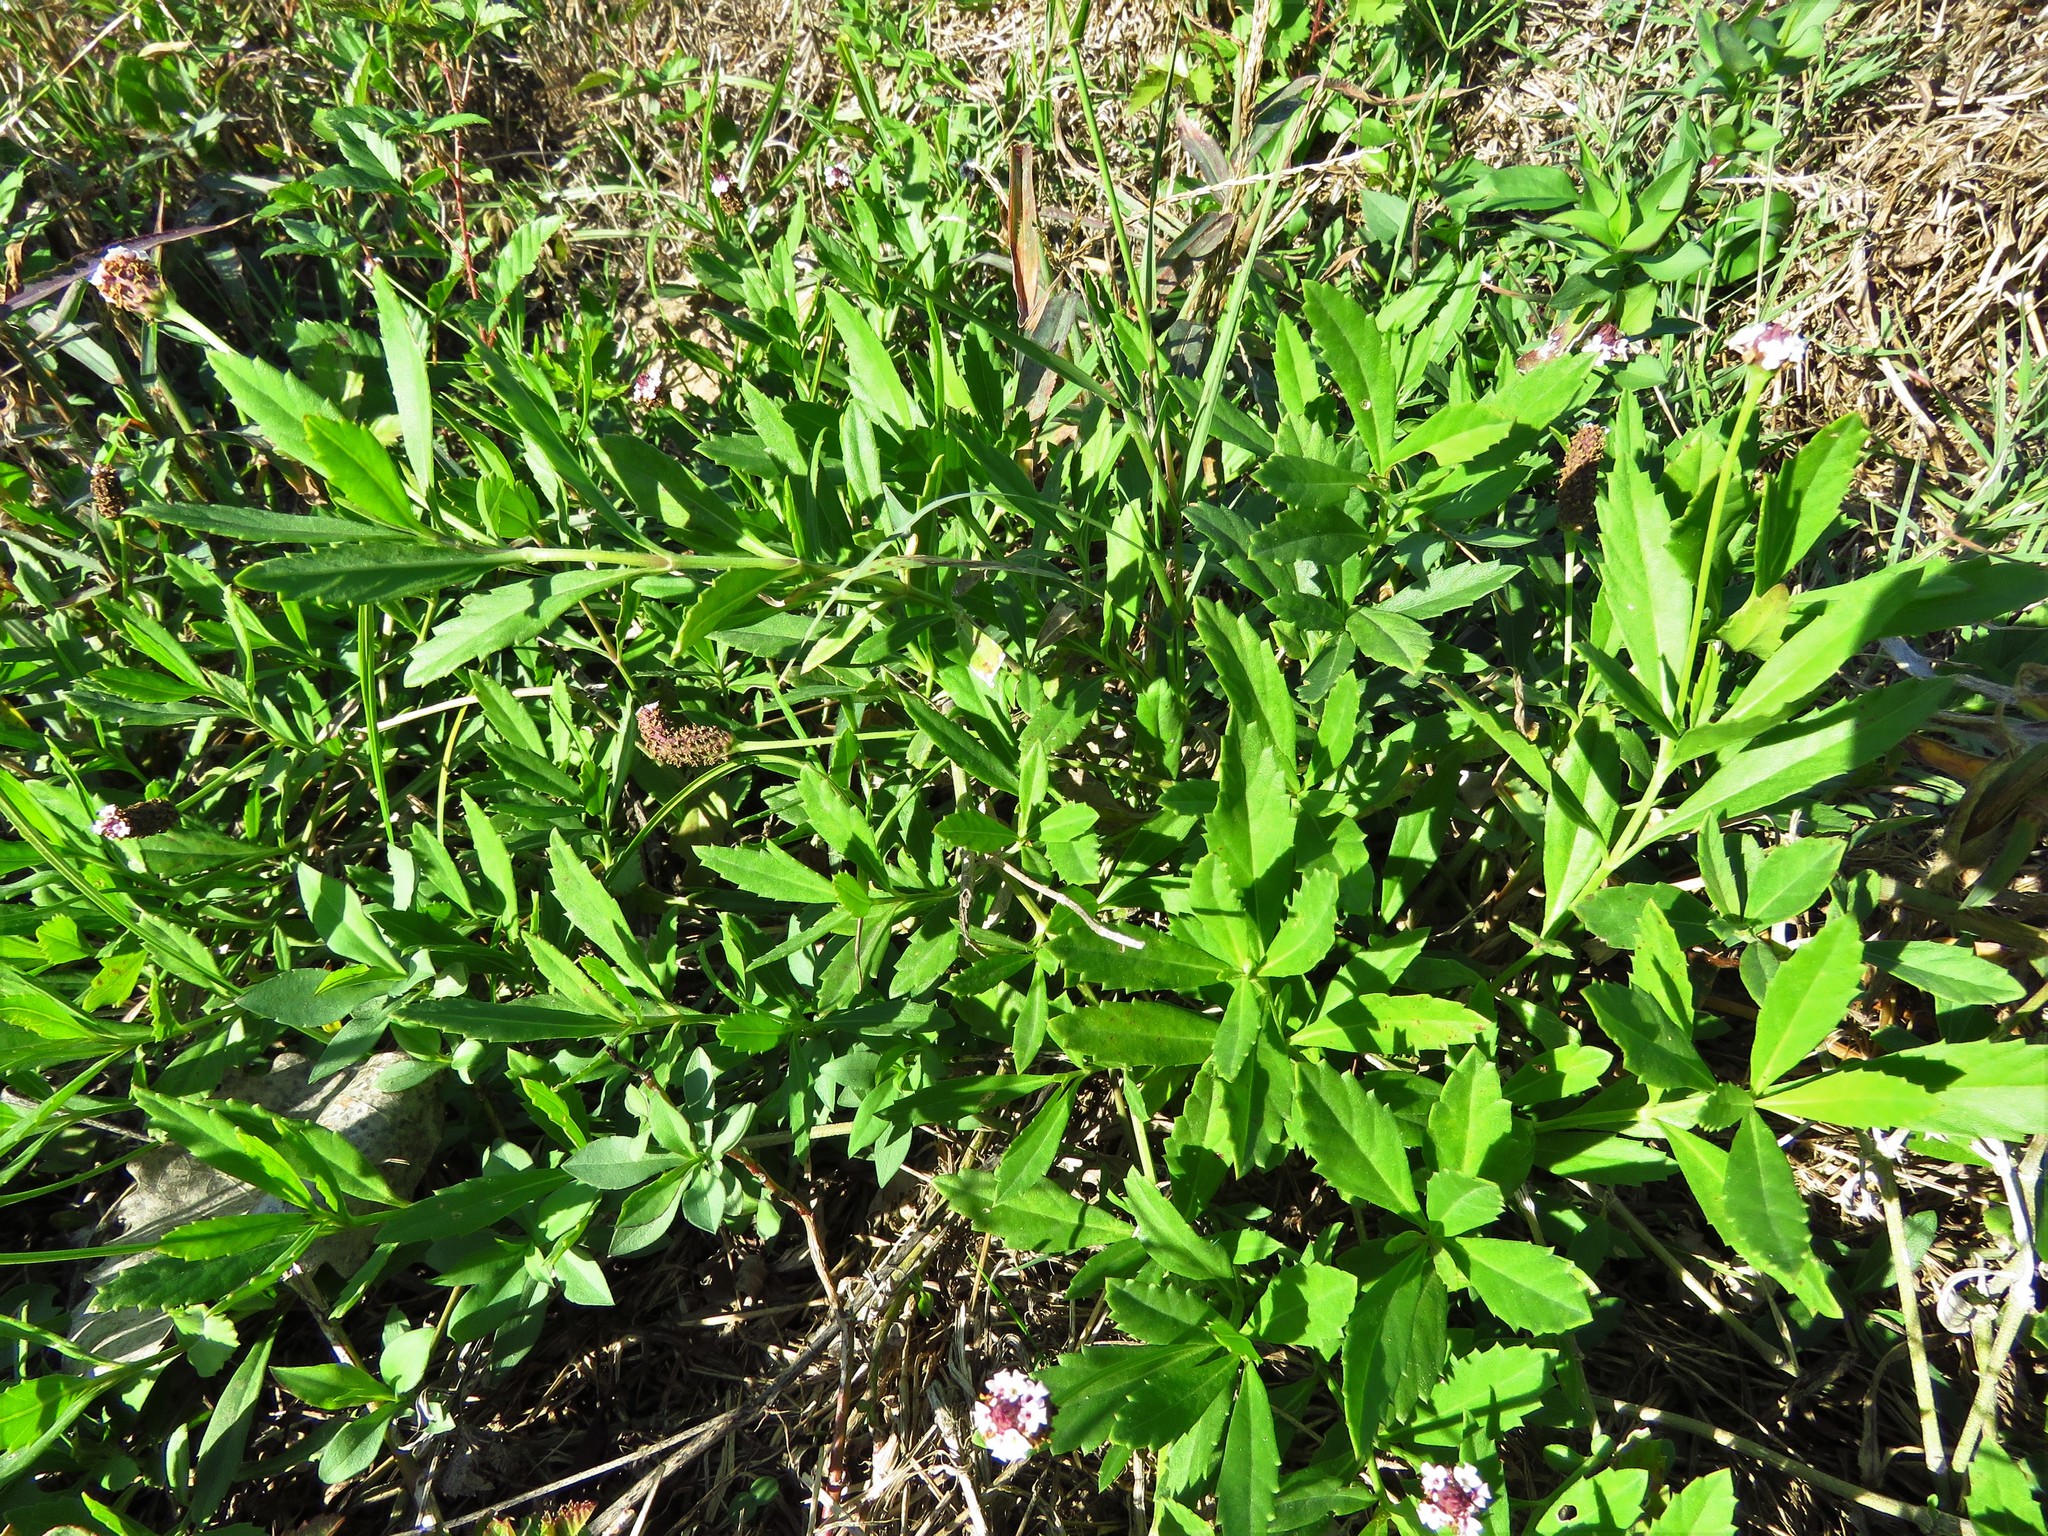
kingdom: Plantae
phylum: Tracheophyta
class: Magnoliopsida
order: Lamiales
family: Verbenaceae
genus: Phyla
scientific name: Phyla nodiflora
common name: Frogfruit
